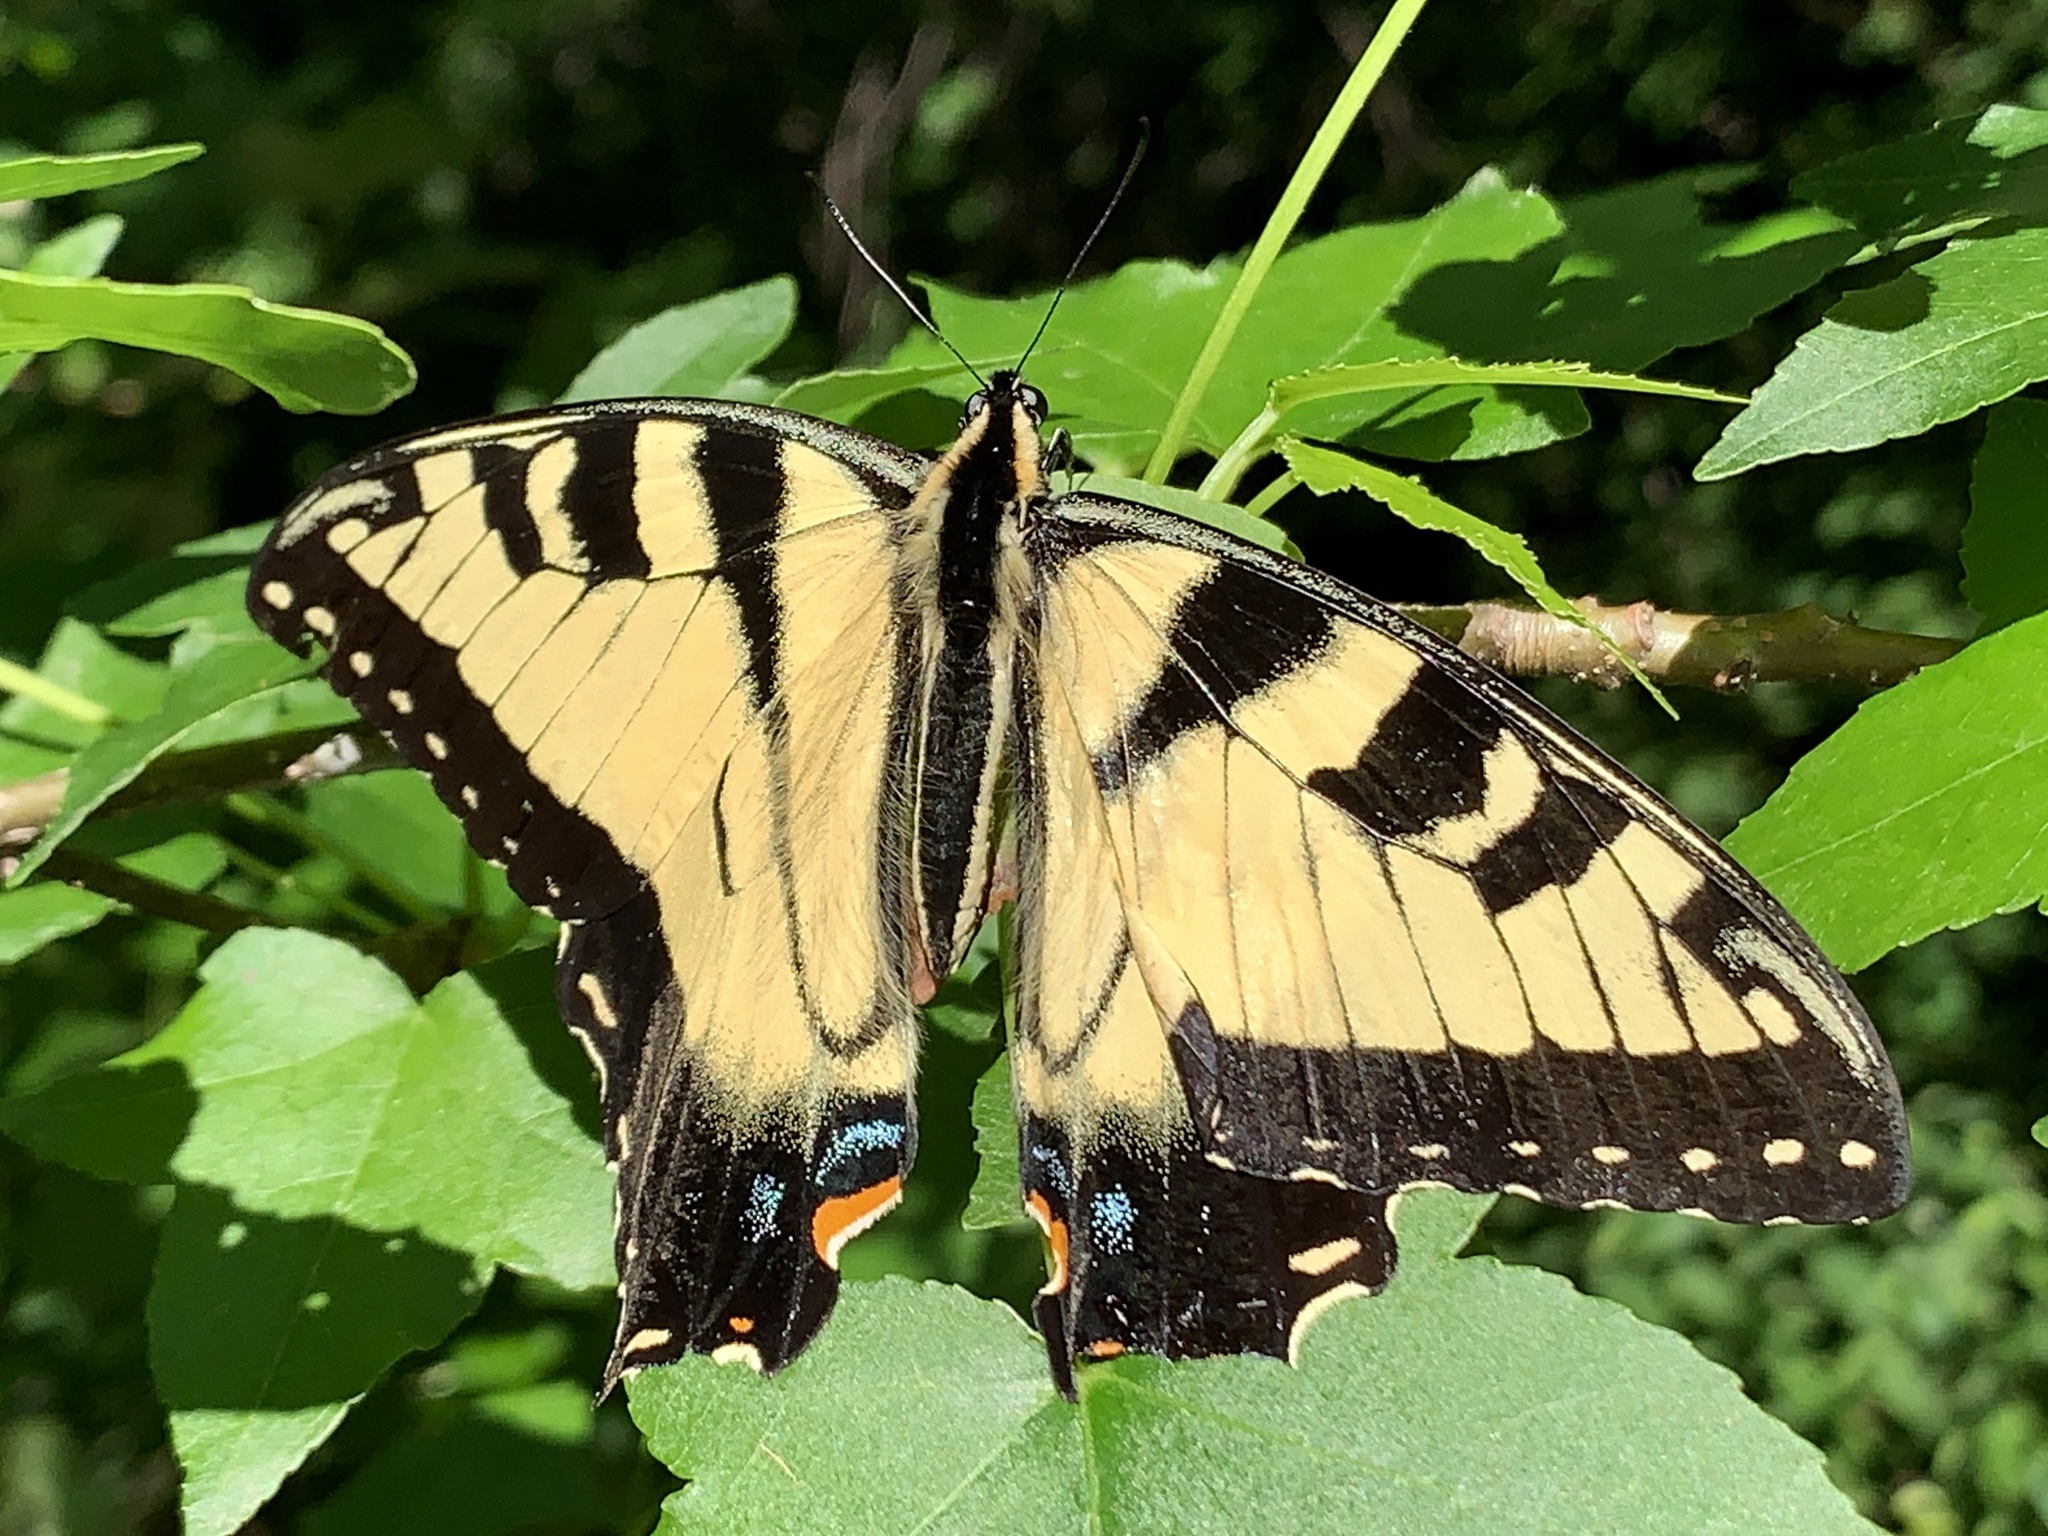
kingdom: Animalia
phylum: Arthropoda
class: Insecta
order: Lepidoptera
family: Papilionidae
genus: Papilio
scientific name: Papilio glaucus
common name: Tiger swallowtail
